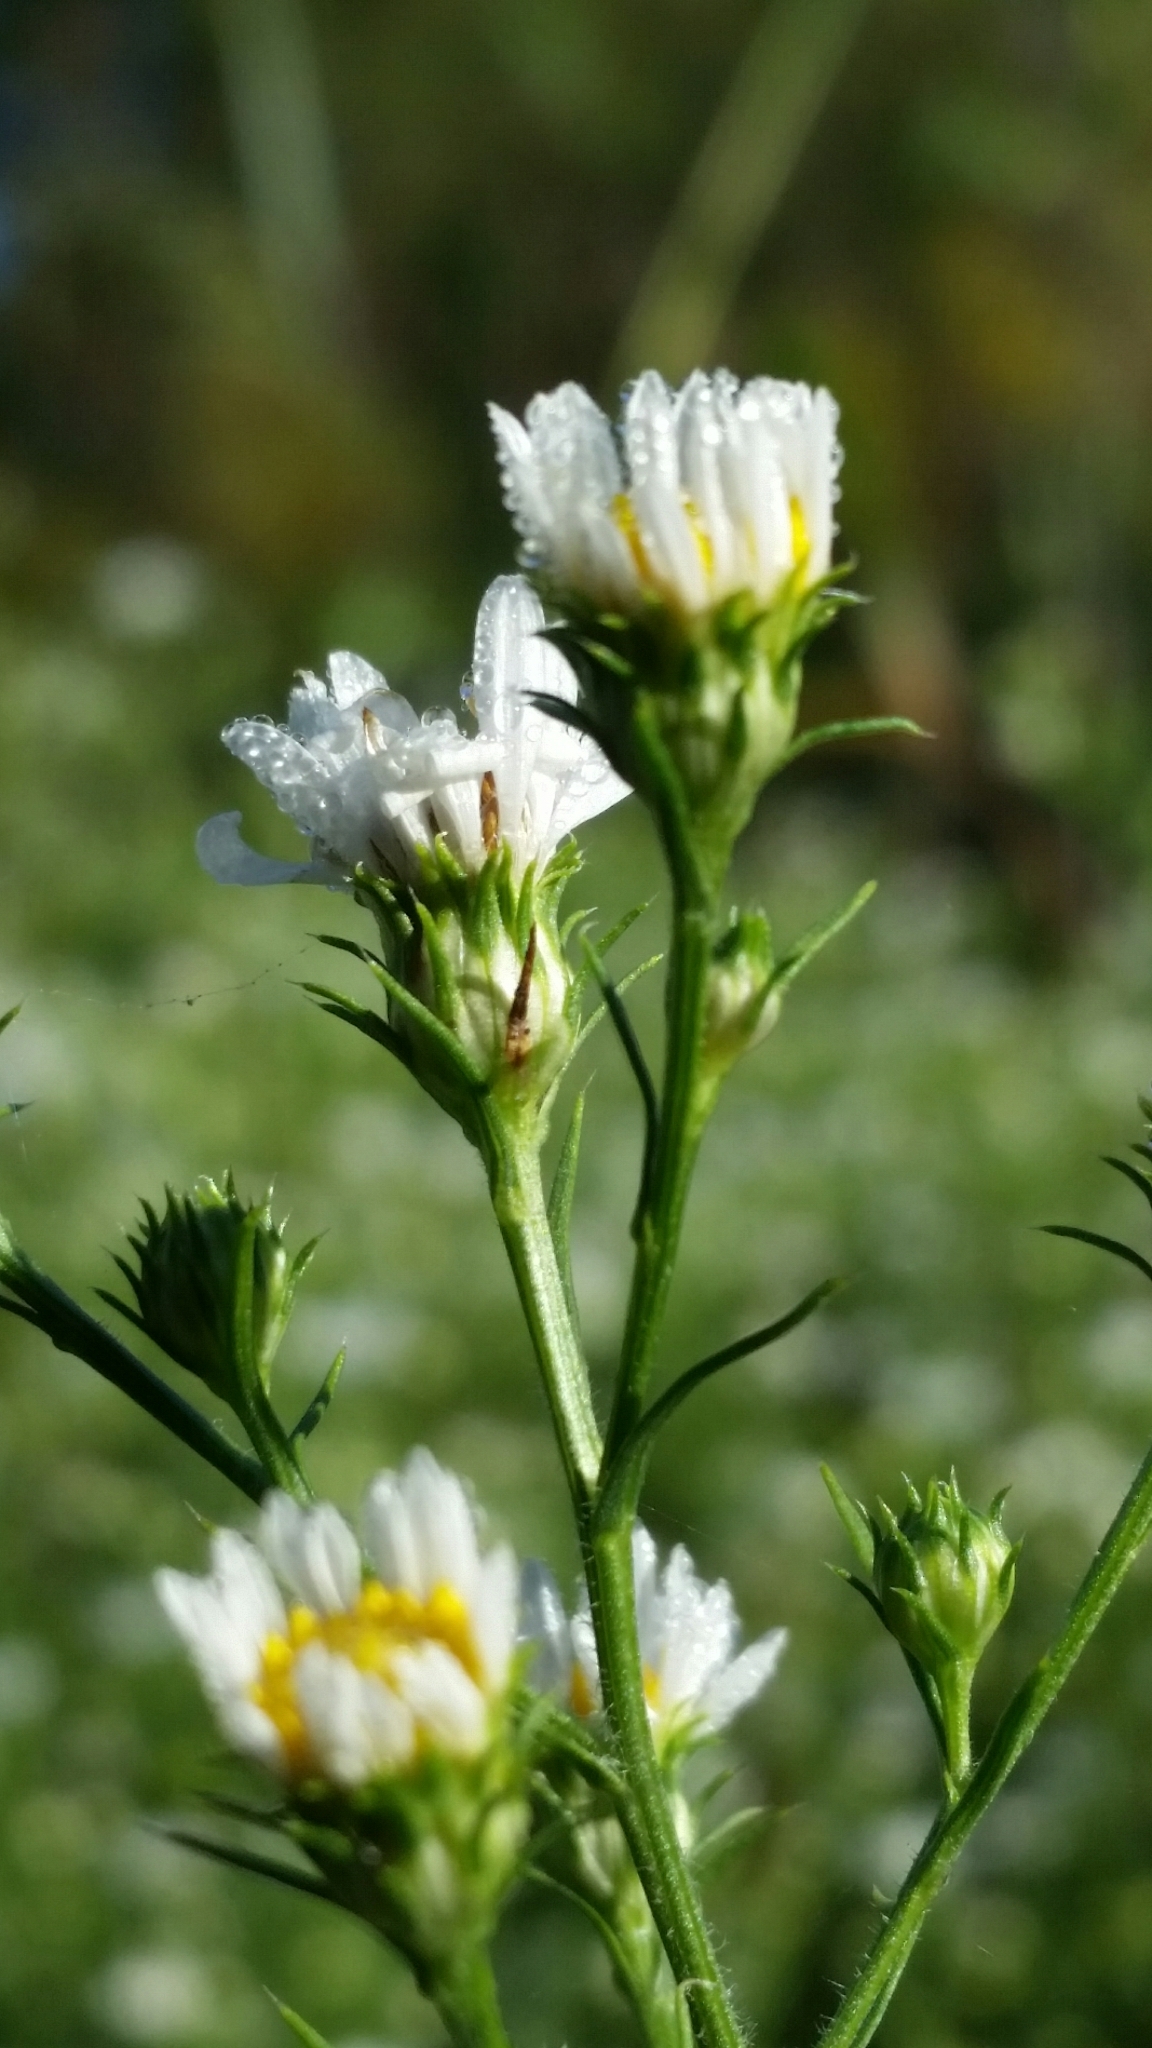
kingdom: Plantae
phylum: Tracheophyta
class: Magnoliopsida
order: Asterales
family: Asteraceae
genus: Symphyotrichum
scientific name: Symphyotrichum pilosum
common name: Awl aster
